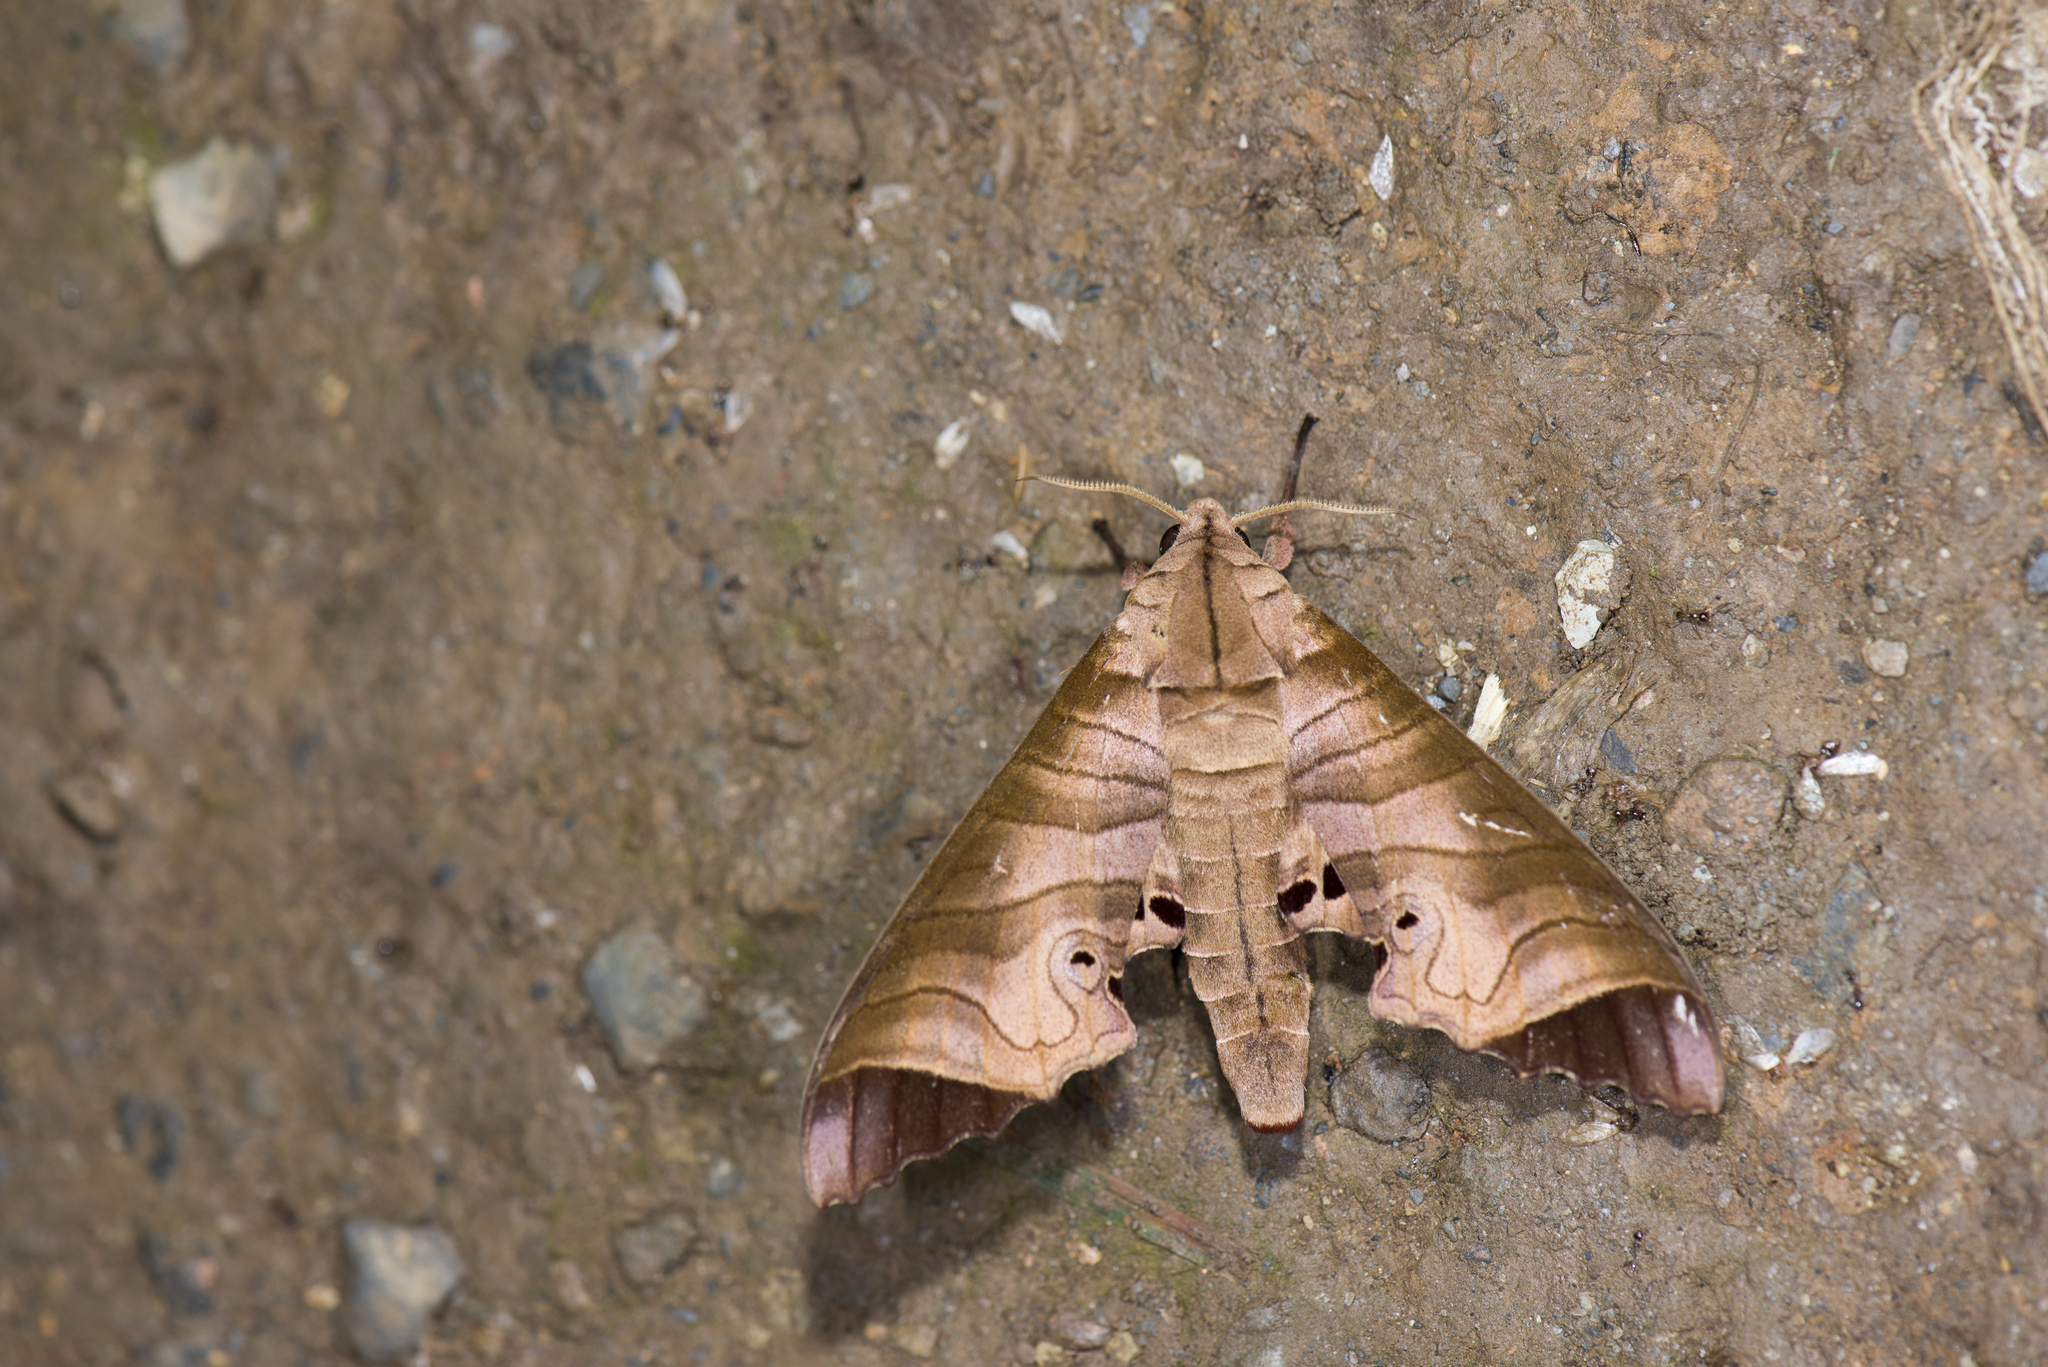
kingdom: Animalia
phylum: Arthropoda
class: Insecta
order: Lepidoptera
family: Sphingidae
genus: Marumba
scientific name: Marumba saishiuana
